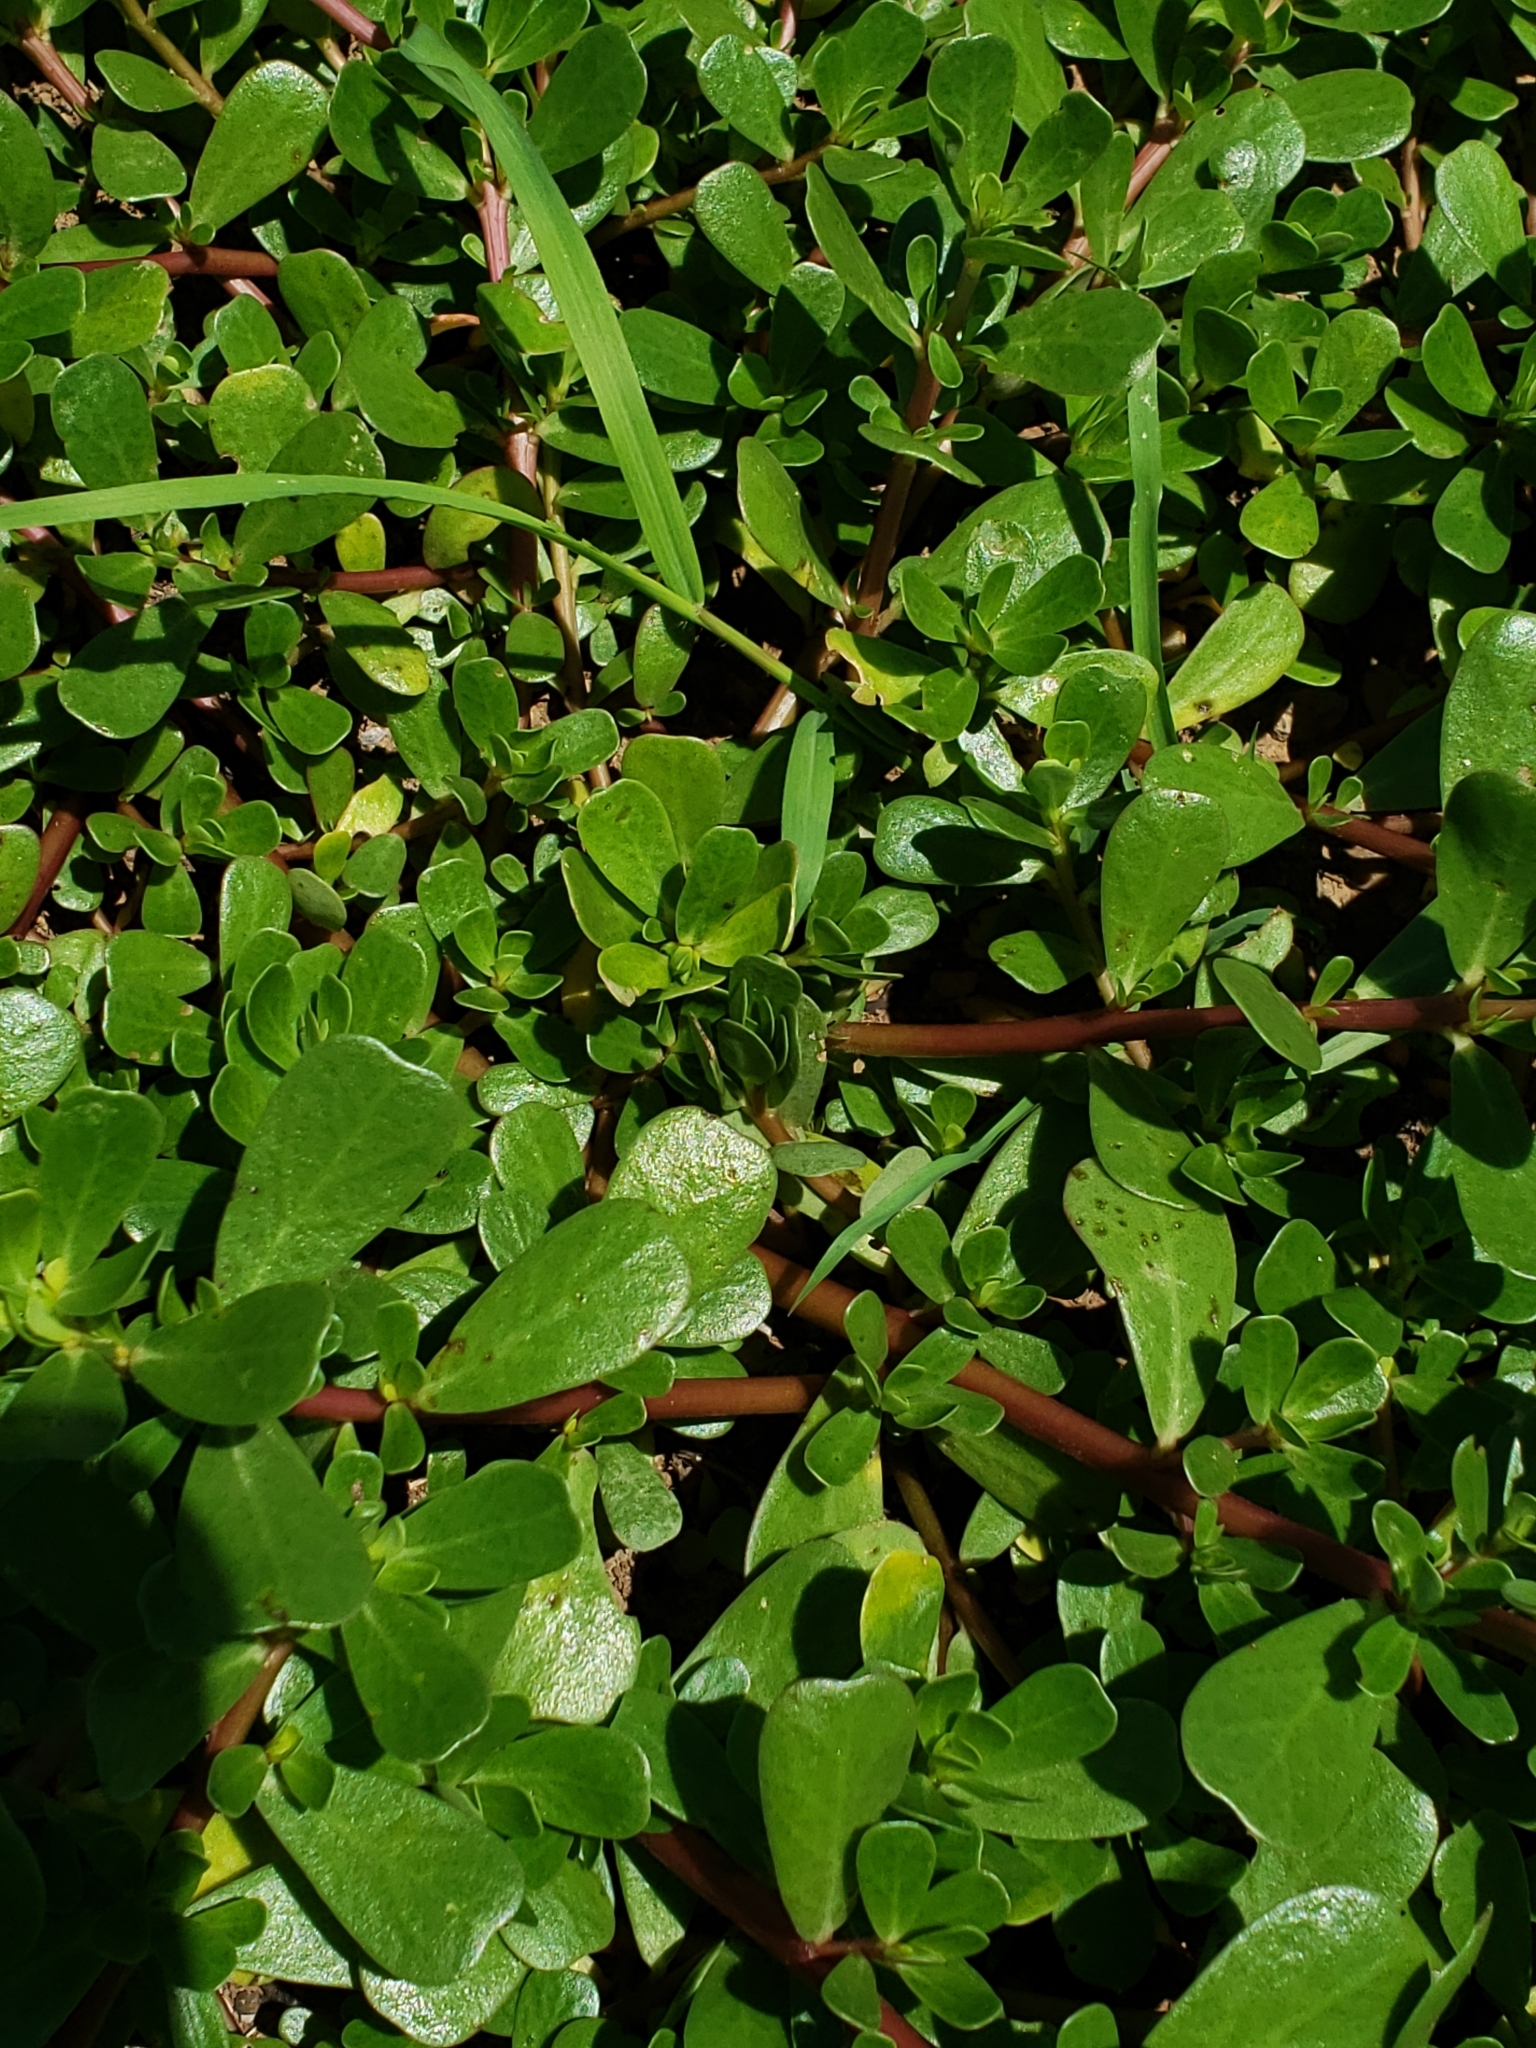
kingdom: Plantae
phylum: Tracheophyta
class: Magnoliopsida
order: Caryophyllales
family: Portulacaceae
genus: Portulaca
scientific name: Portulaca oleracea
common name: Common purslane
